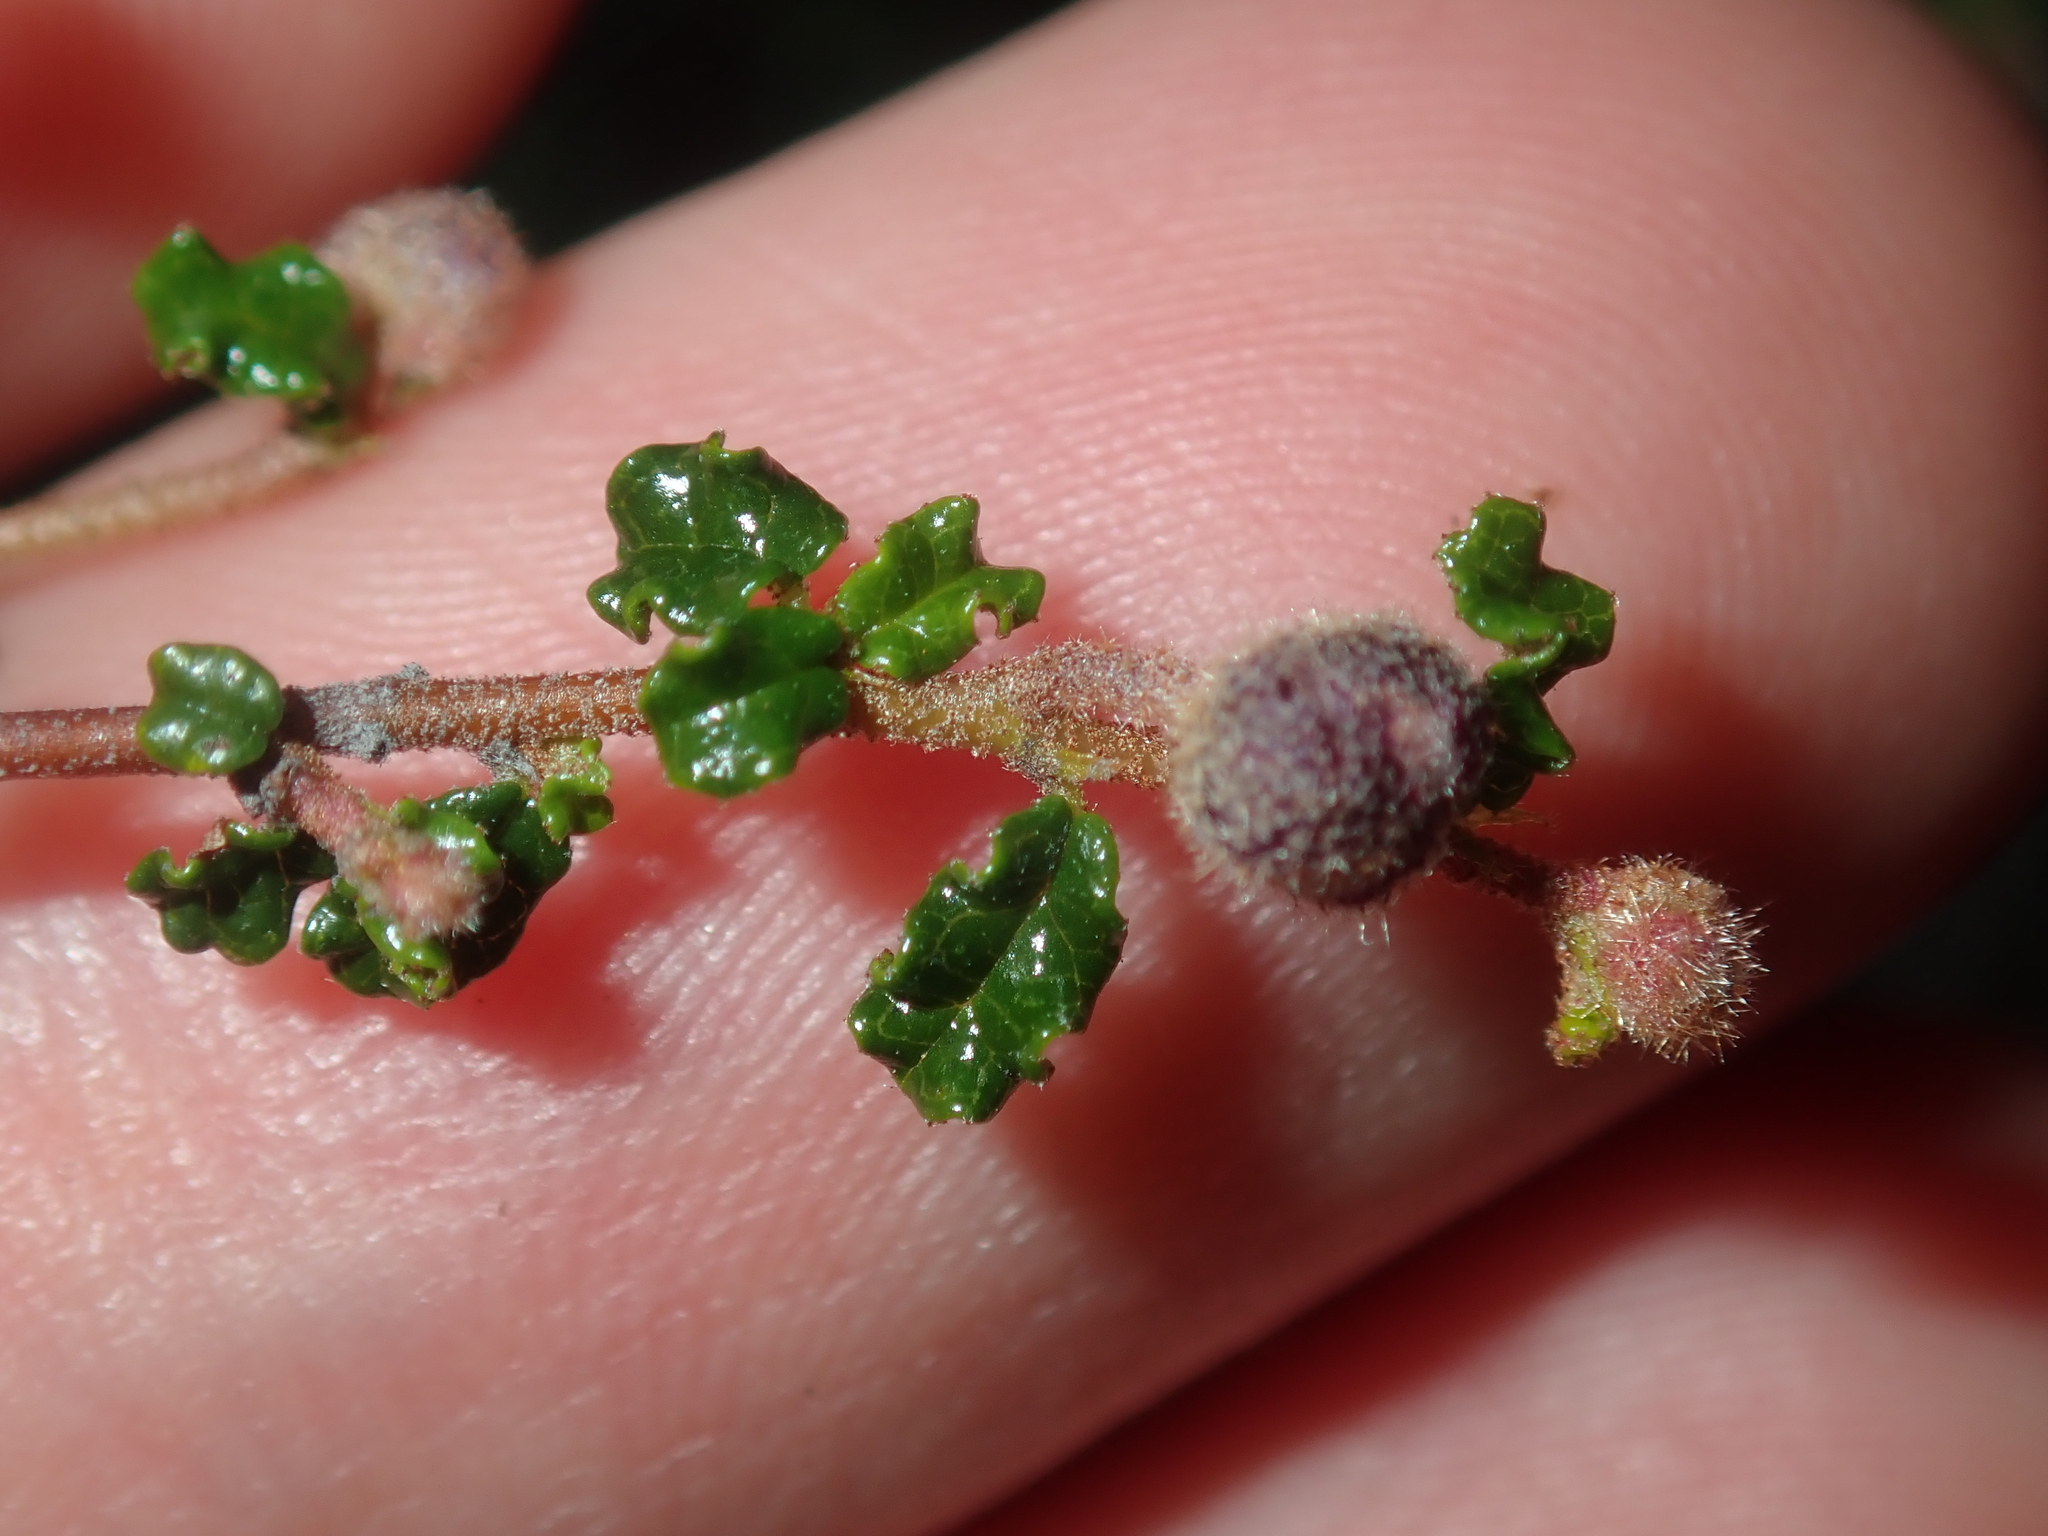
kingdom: Plantae
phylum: Tracheophyta
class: Magnoliopsida
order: Malvales
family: Malvaceae
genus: Seringia
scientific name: Seringia saxatilis
